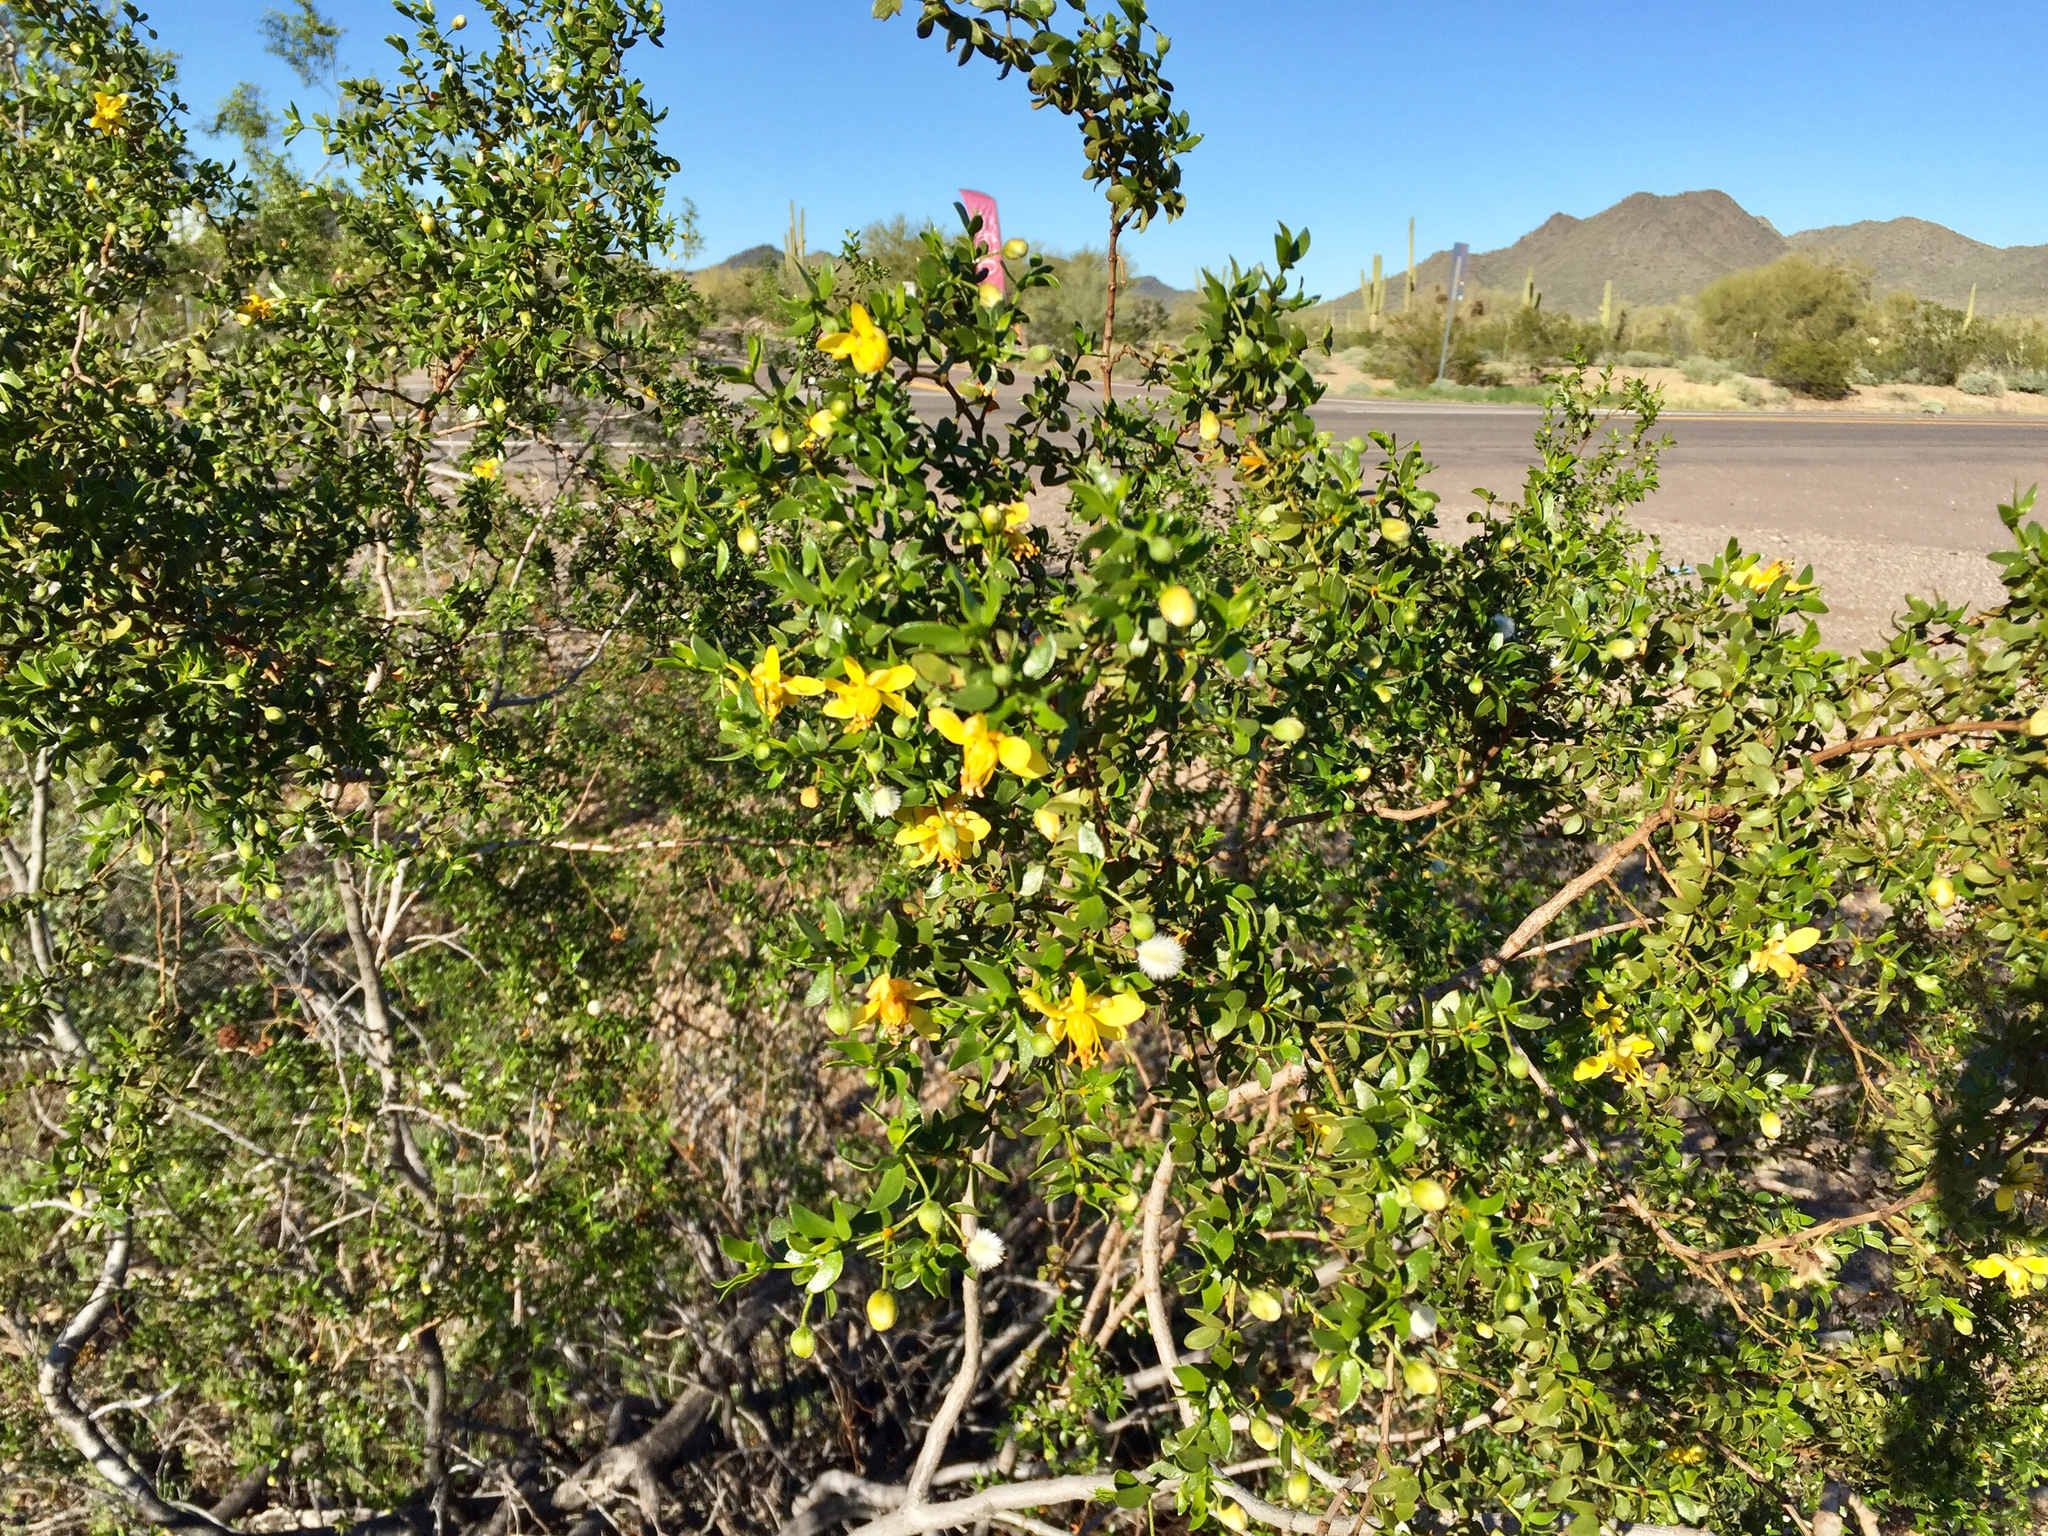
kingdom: Plantae
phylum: Tracheophyta
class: Magnoliopsida
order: Zygophyllales
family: Zygophyllaceae
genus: Larrea
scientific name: Larrea tridentata
